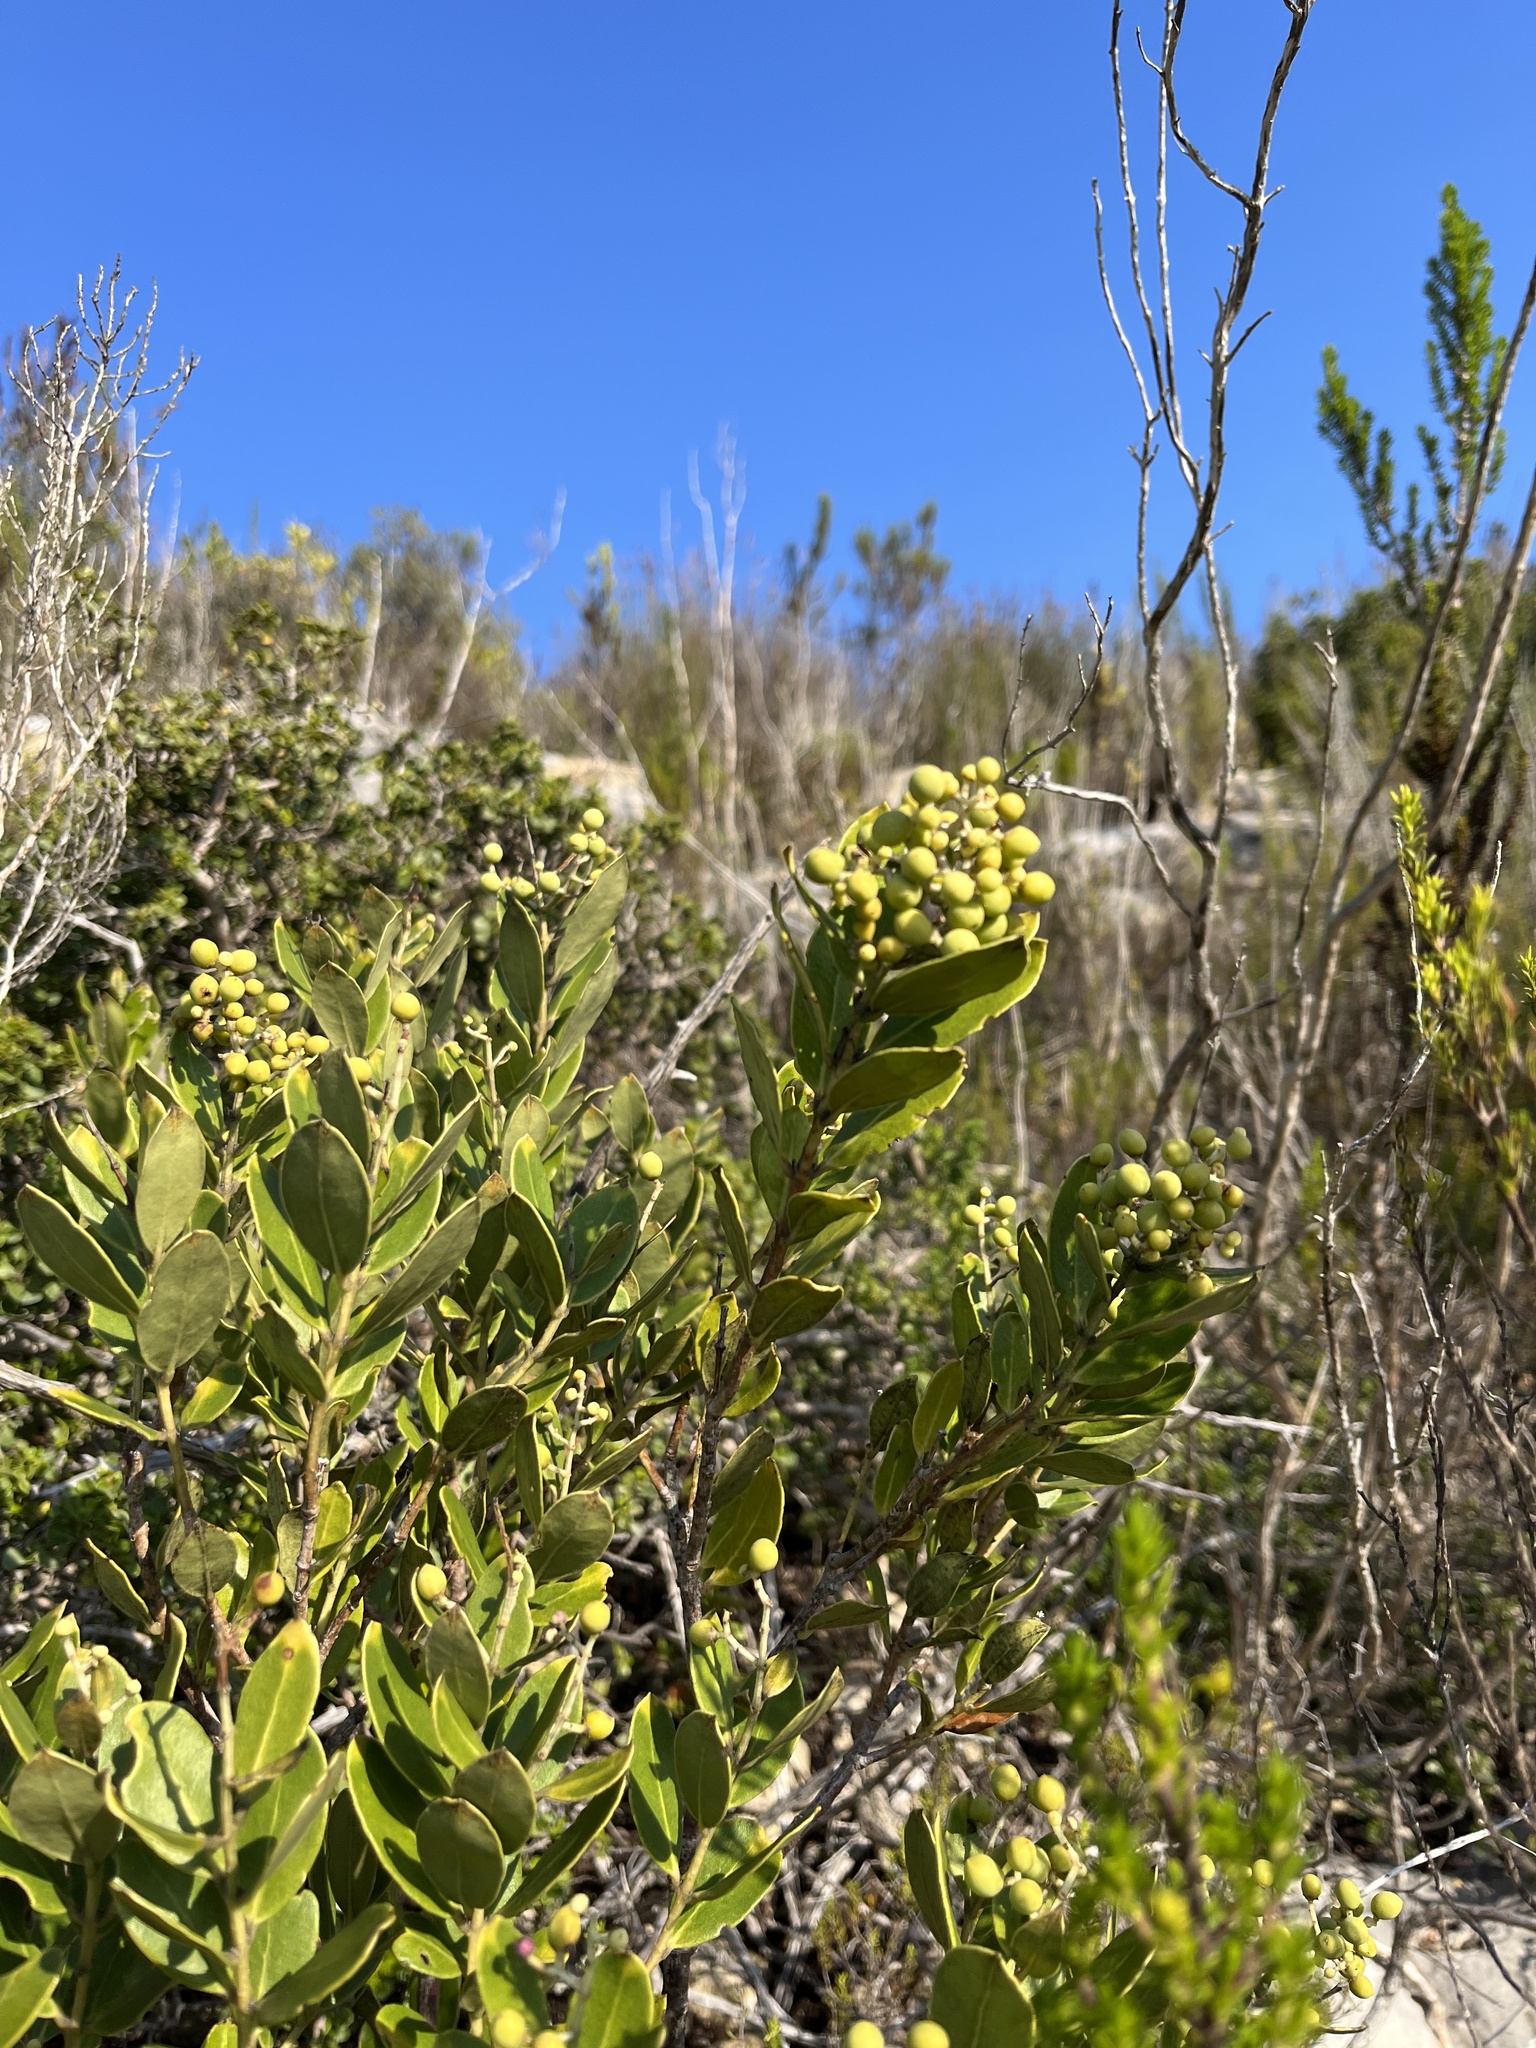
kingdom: Plantae
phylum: Tracheophyta
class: Magnoliopsida
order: Lamiales
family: Oleaceae
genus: Olea
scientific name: Olea capensis
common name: Black ironwood
